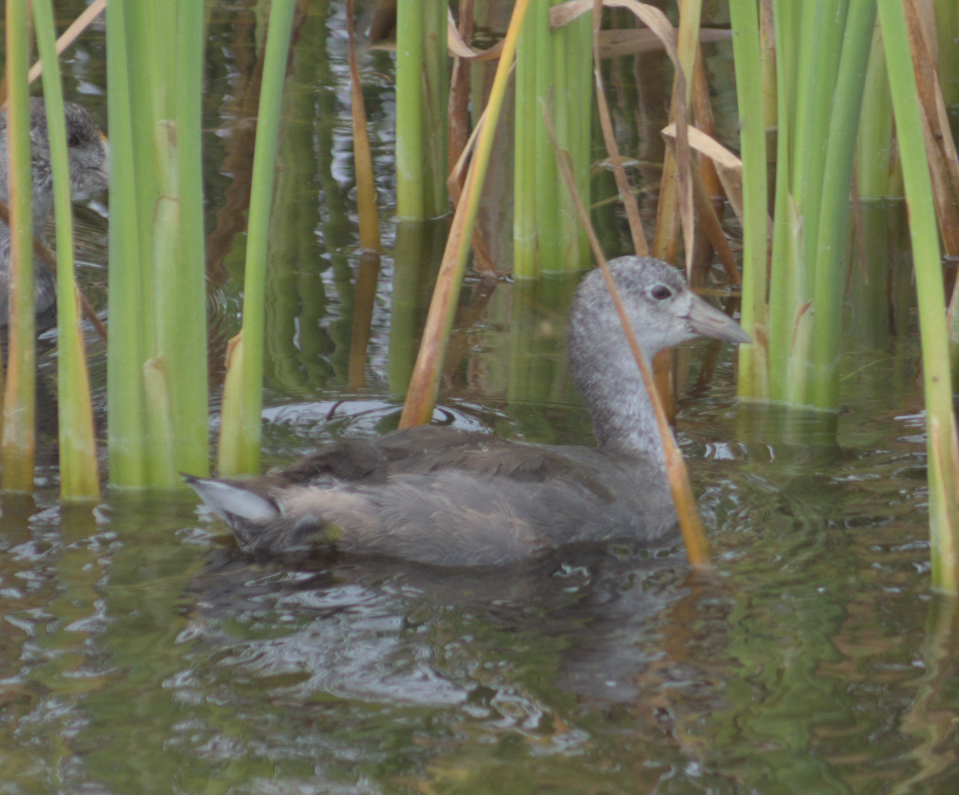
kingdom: Animalia
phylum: Chordata
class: Aves
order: Gruiformes
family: Rallidae
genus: Fulica
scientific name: Fulica americana
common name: American coot
